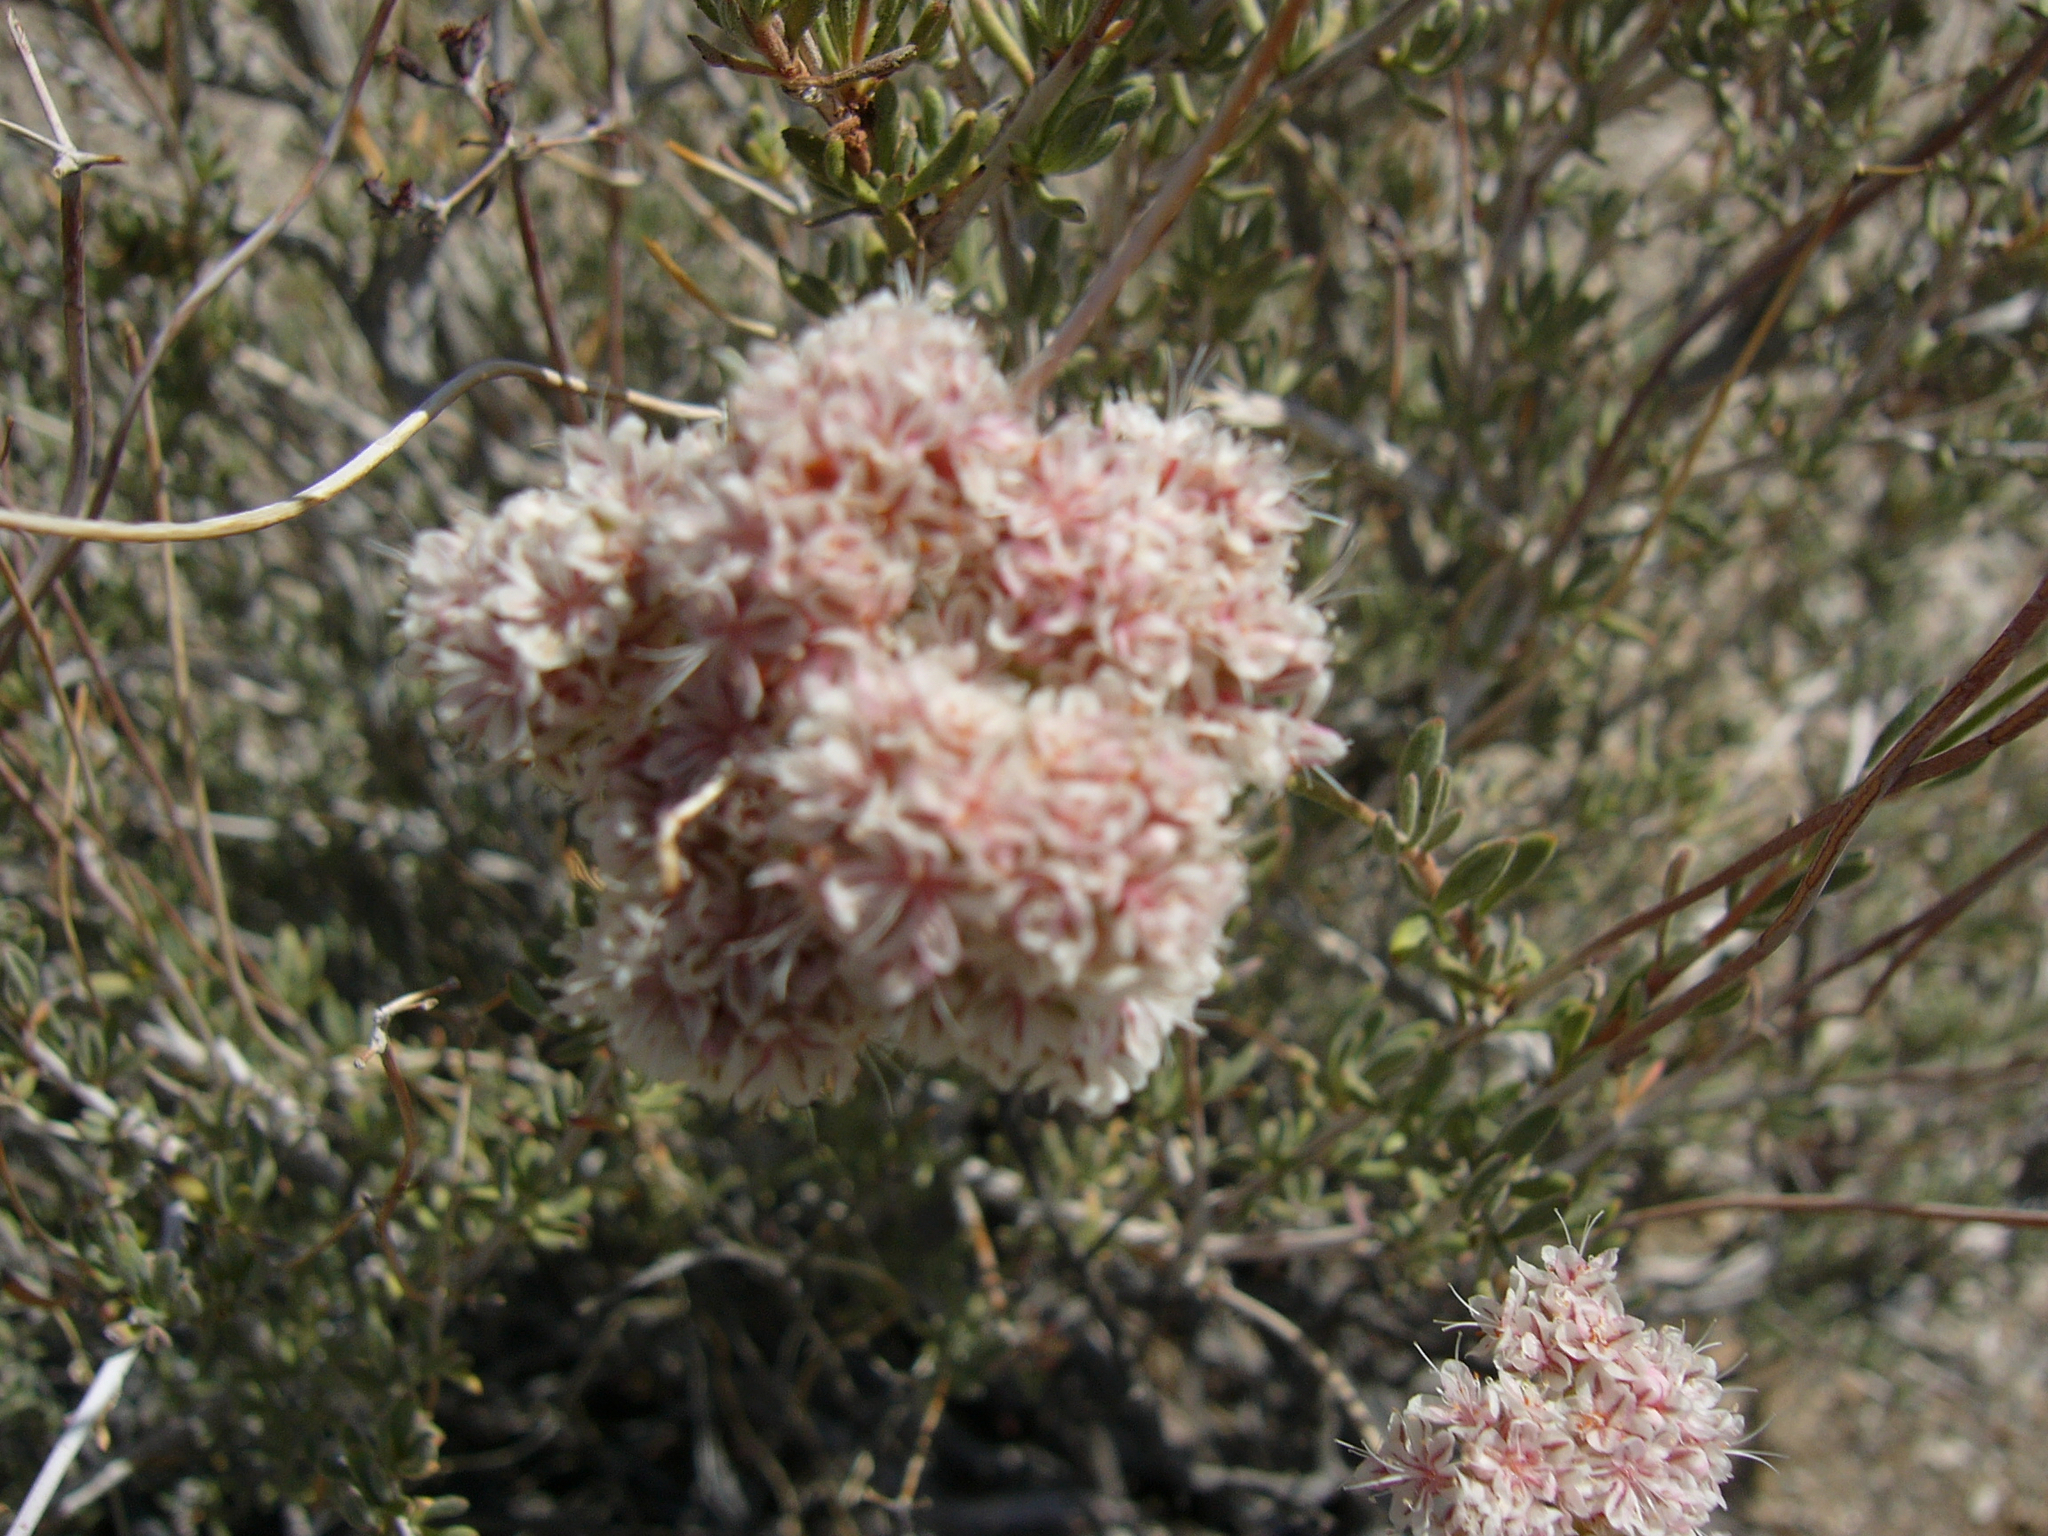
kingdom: Plantae
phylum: Tracheophyta
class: Magnoliopsida
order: Caryophyllales
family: Polygonaceae
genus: Eriogonum
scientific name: Eriogonum fasciculatum
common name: California wild buckwheat
